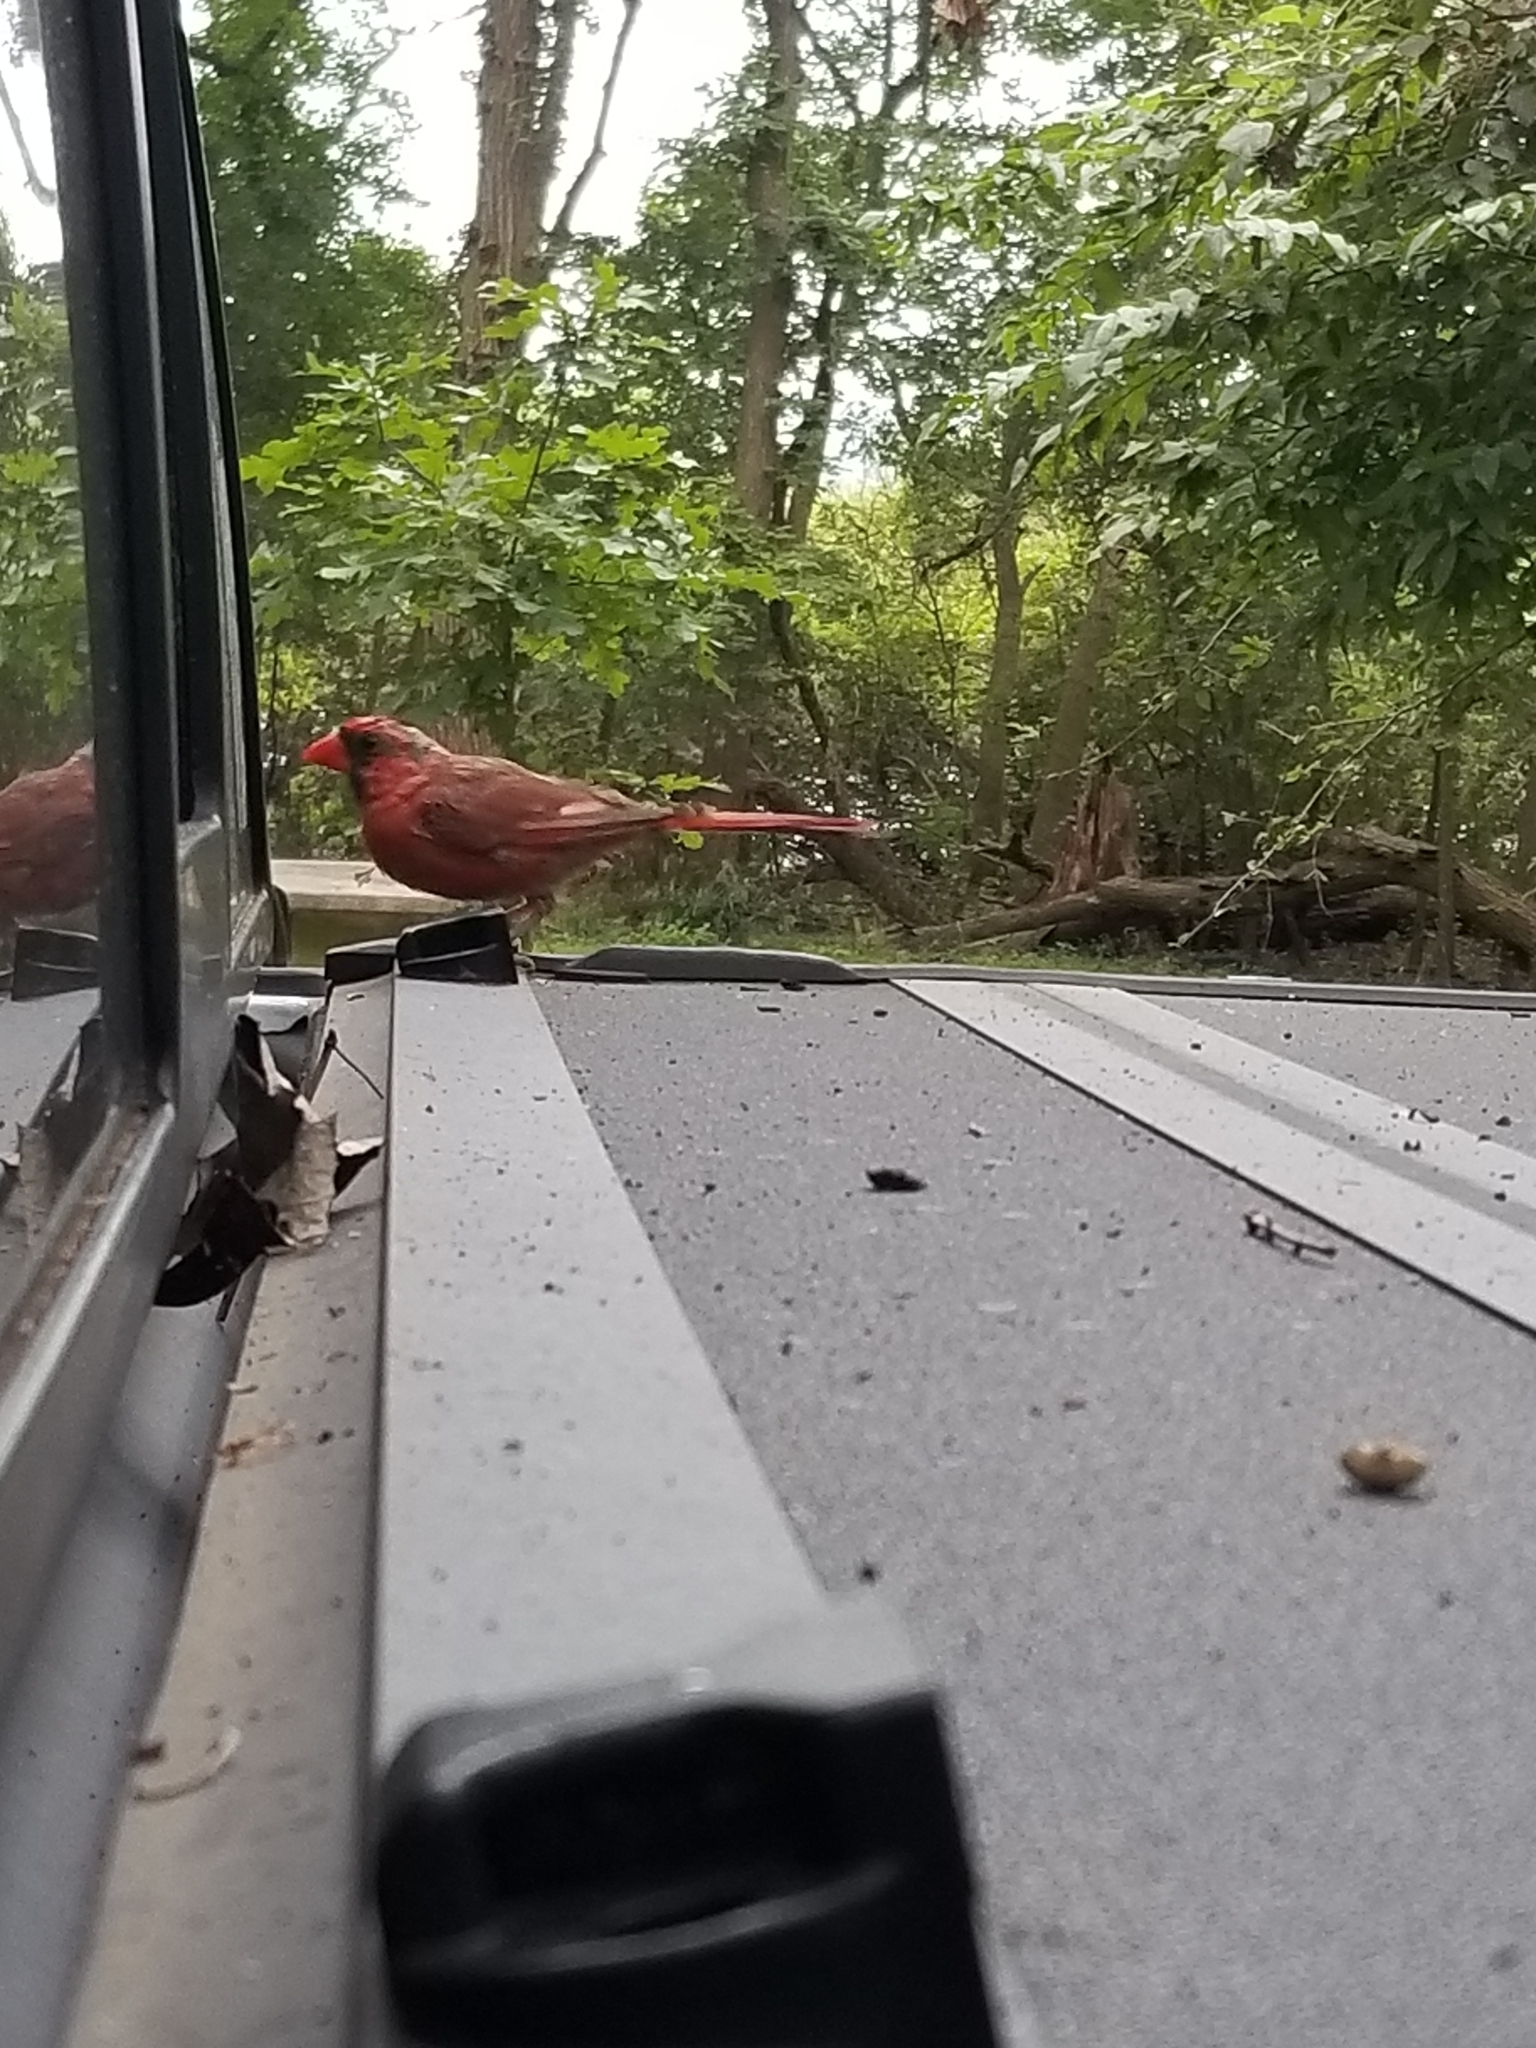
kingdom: Animalia
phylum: Chordata
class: Aves
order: Passeriformes
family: Cardinalidae
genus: Cardinalis
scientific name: Cardinalis cardinalis
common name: Northern cardinal
